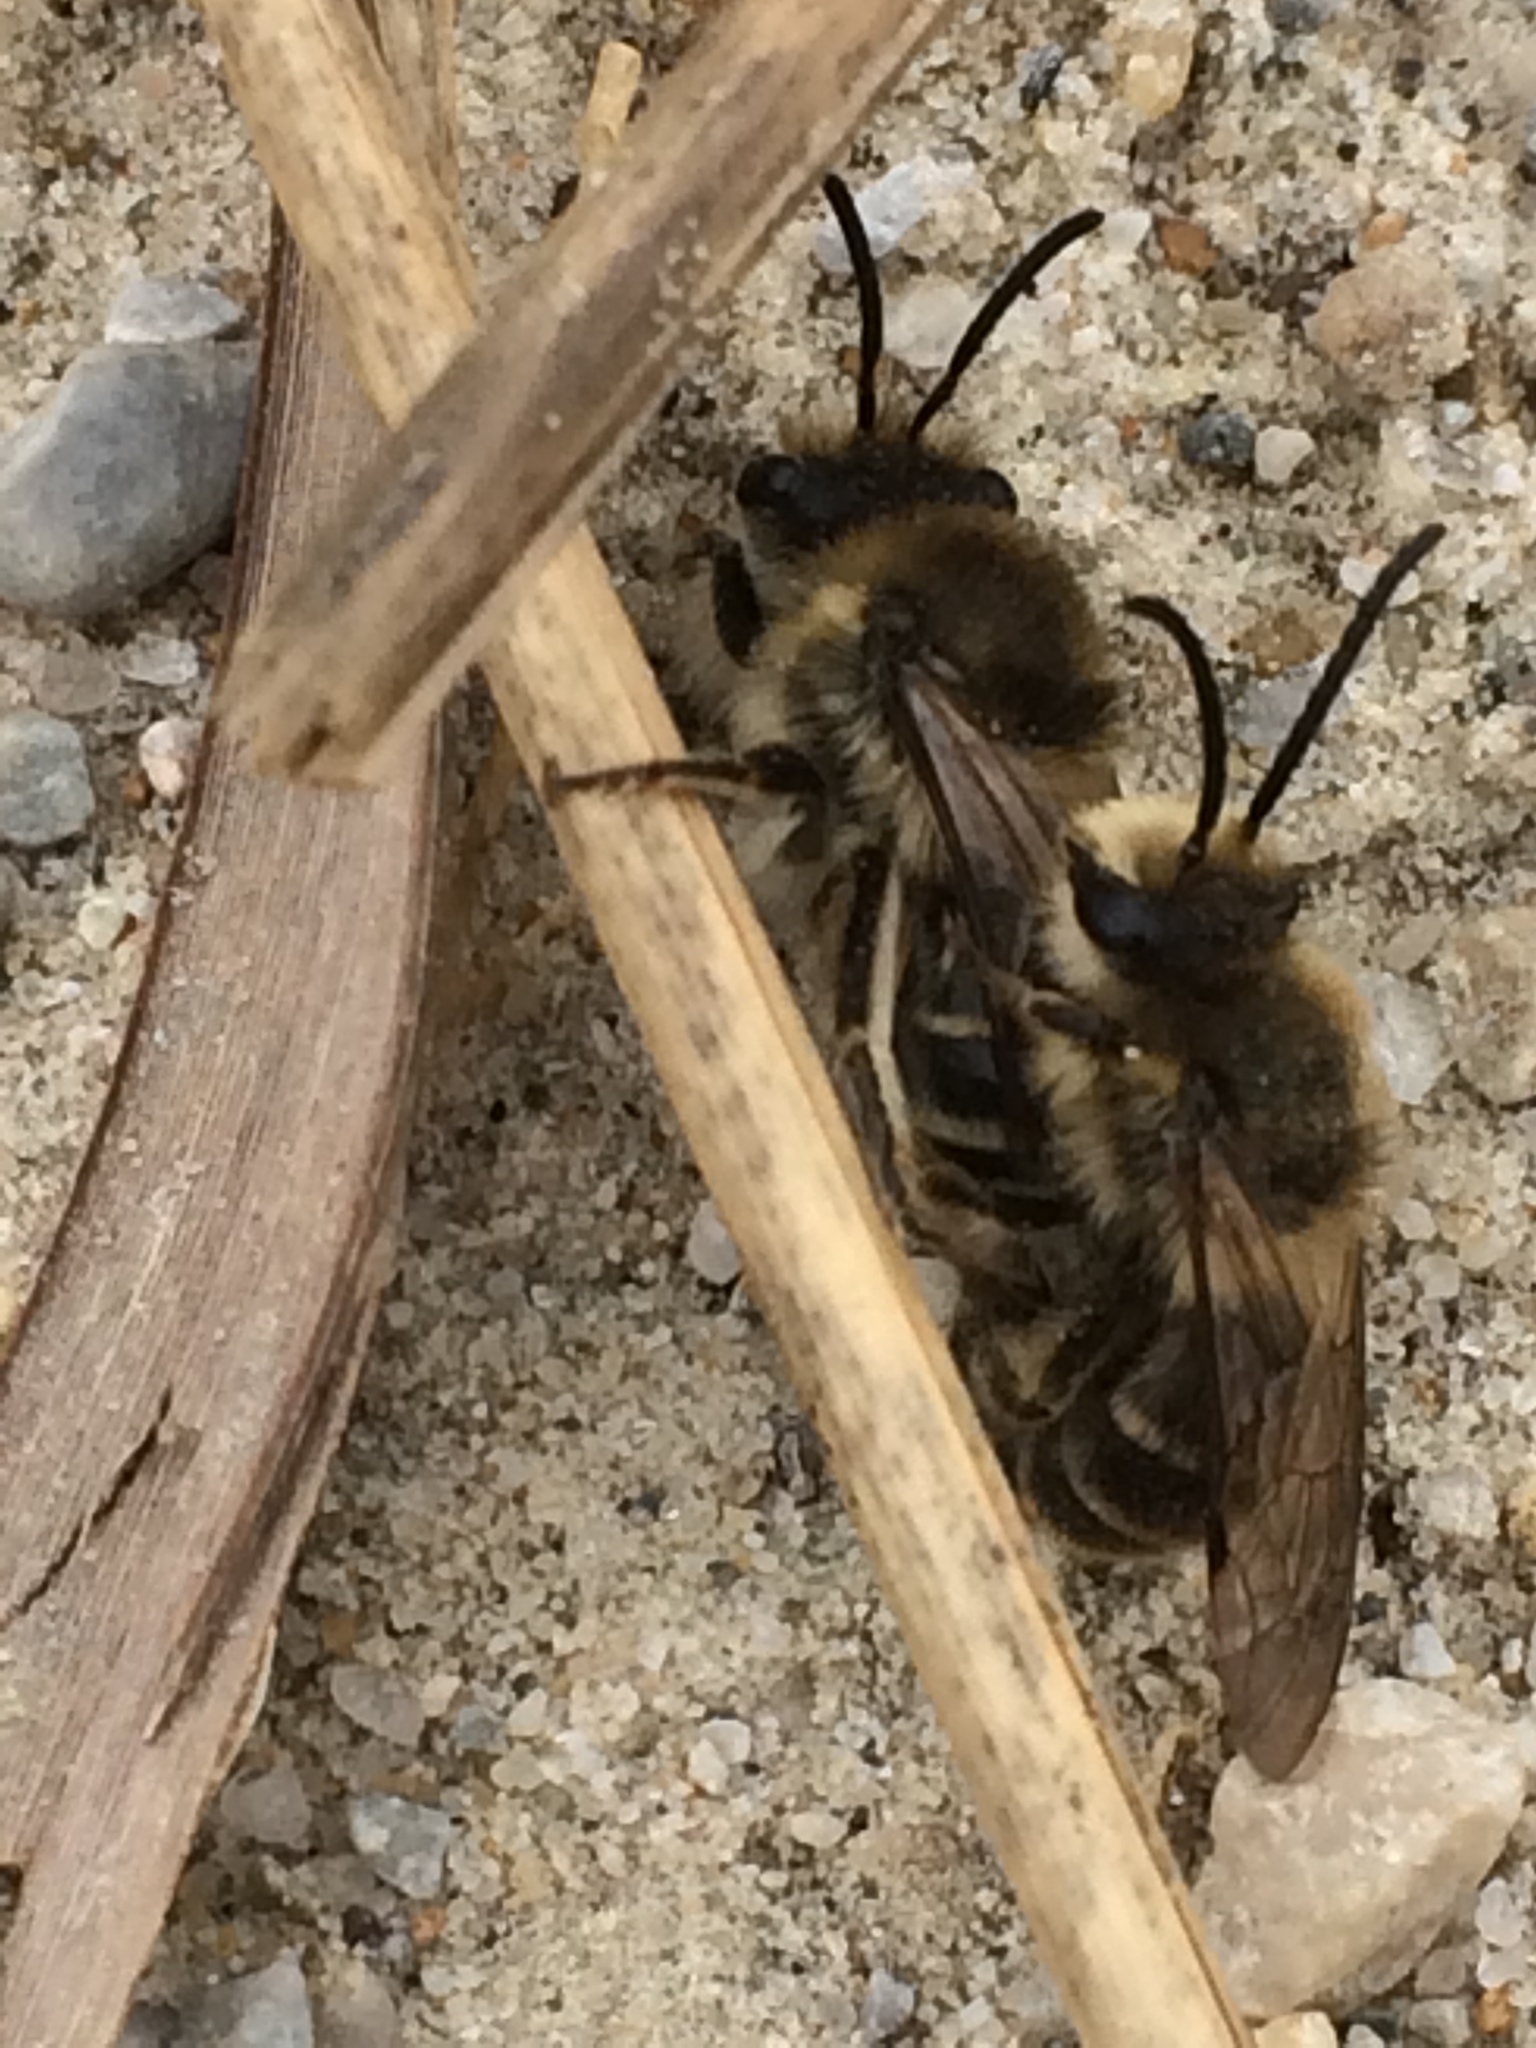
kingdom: Animalia
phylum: Arthropoda
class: Insecta
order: Hymenoptera
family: Colletidae
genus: Colletes
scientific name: Colletes inaequalis
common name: Unequal cellophane bee
